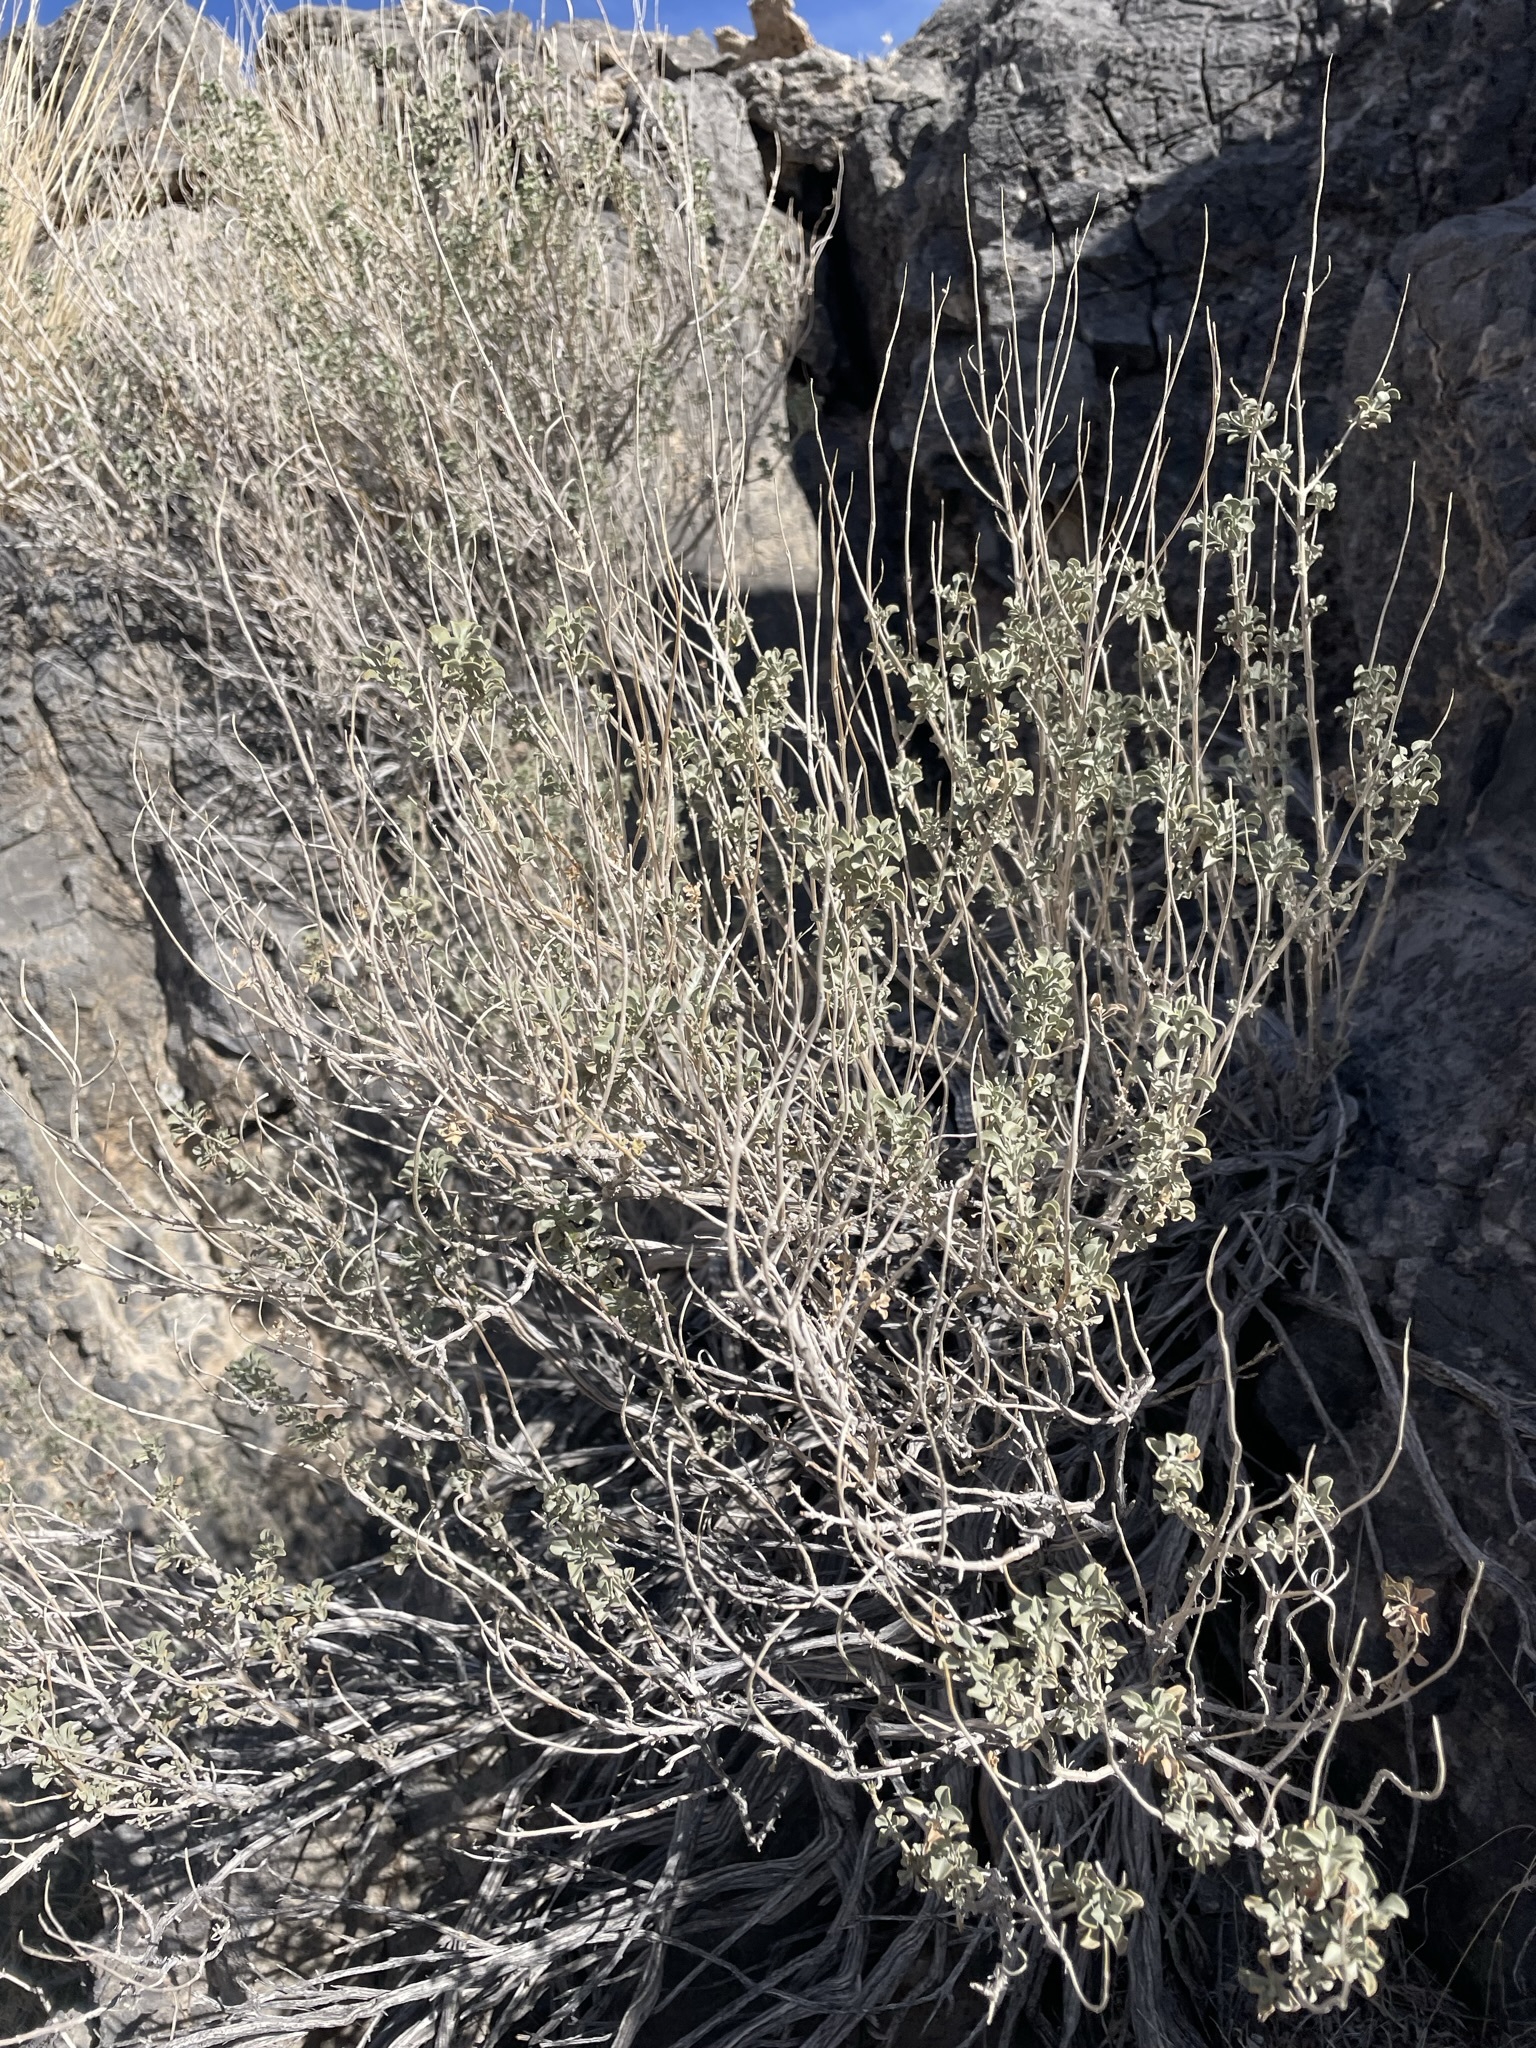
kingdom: Plantae
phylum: Tracheophyta
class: Magnoliopsida
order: Lamiales
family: Lamiaceae
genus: Salvia
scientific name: Salvia dorrii
